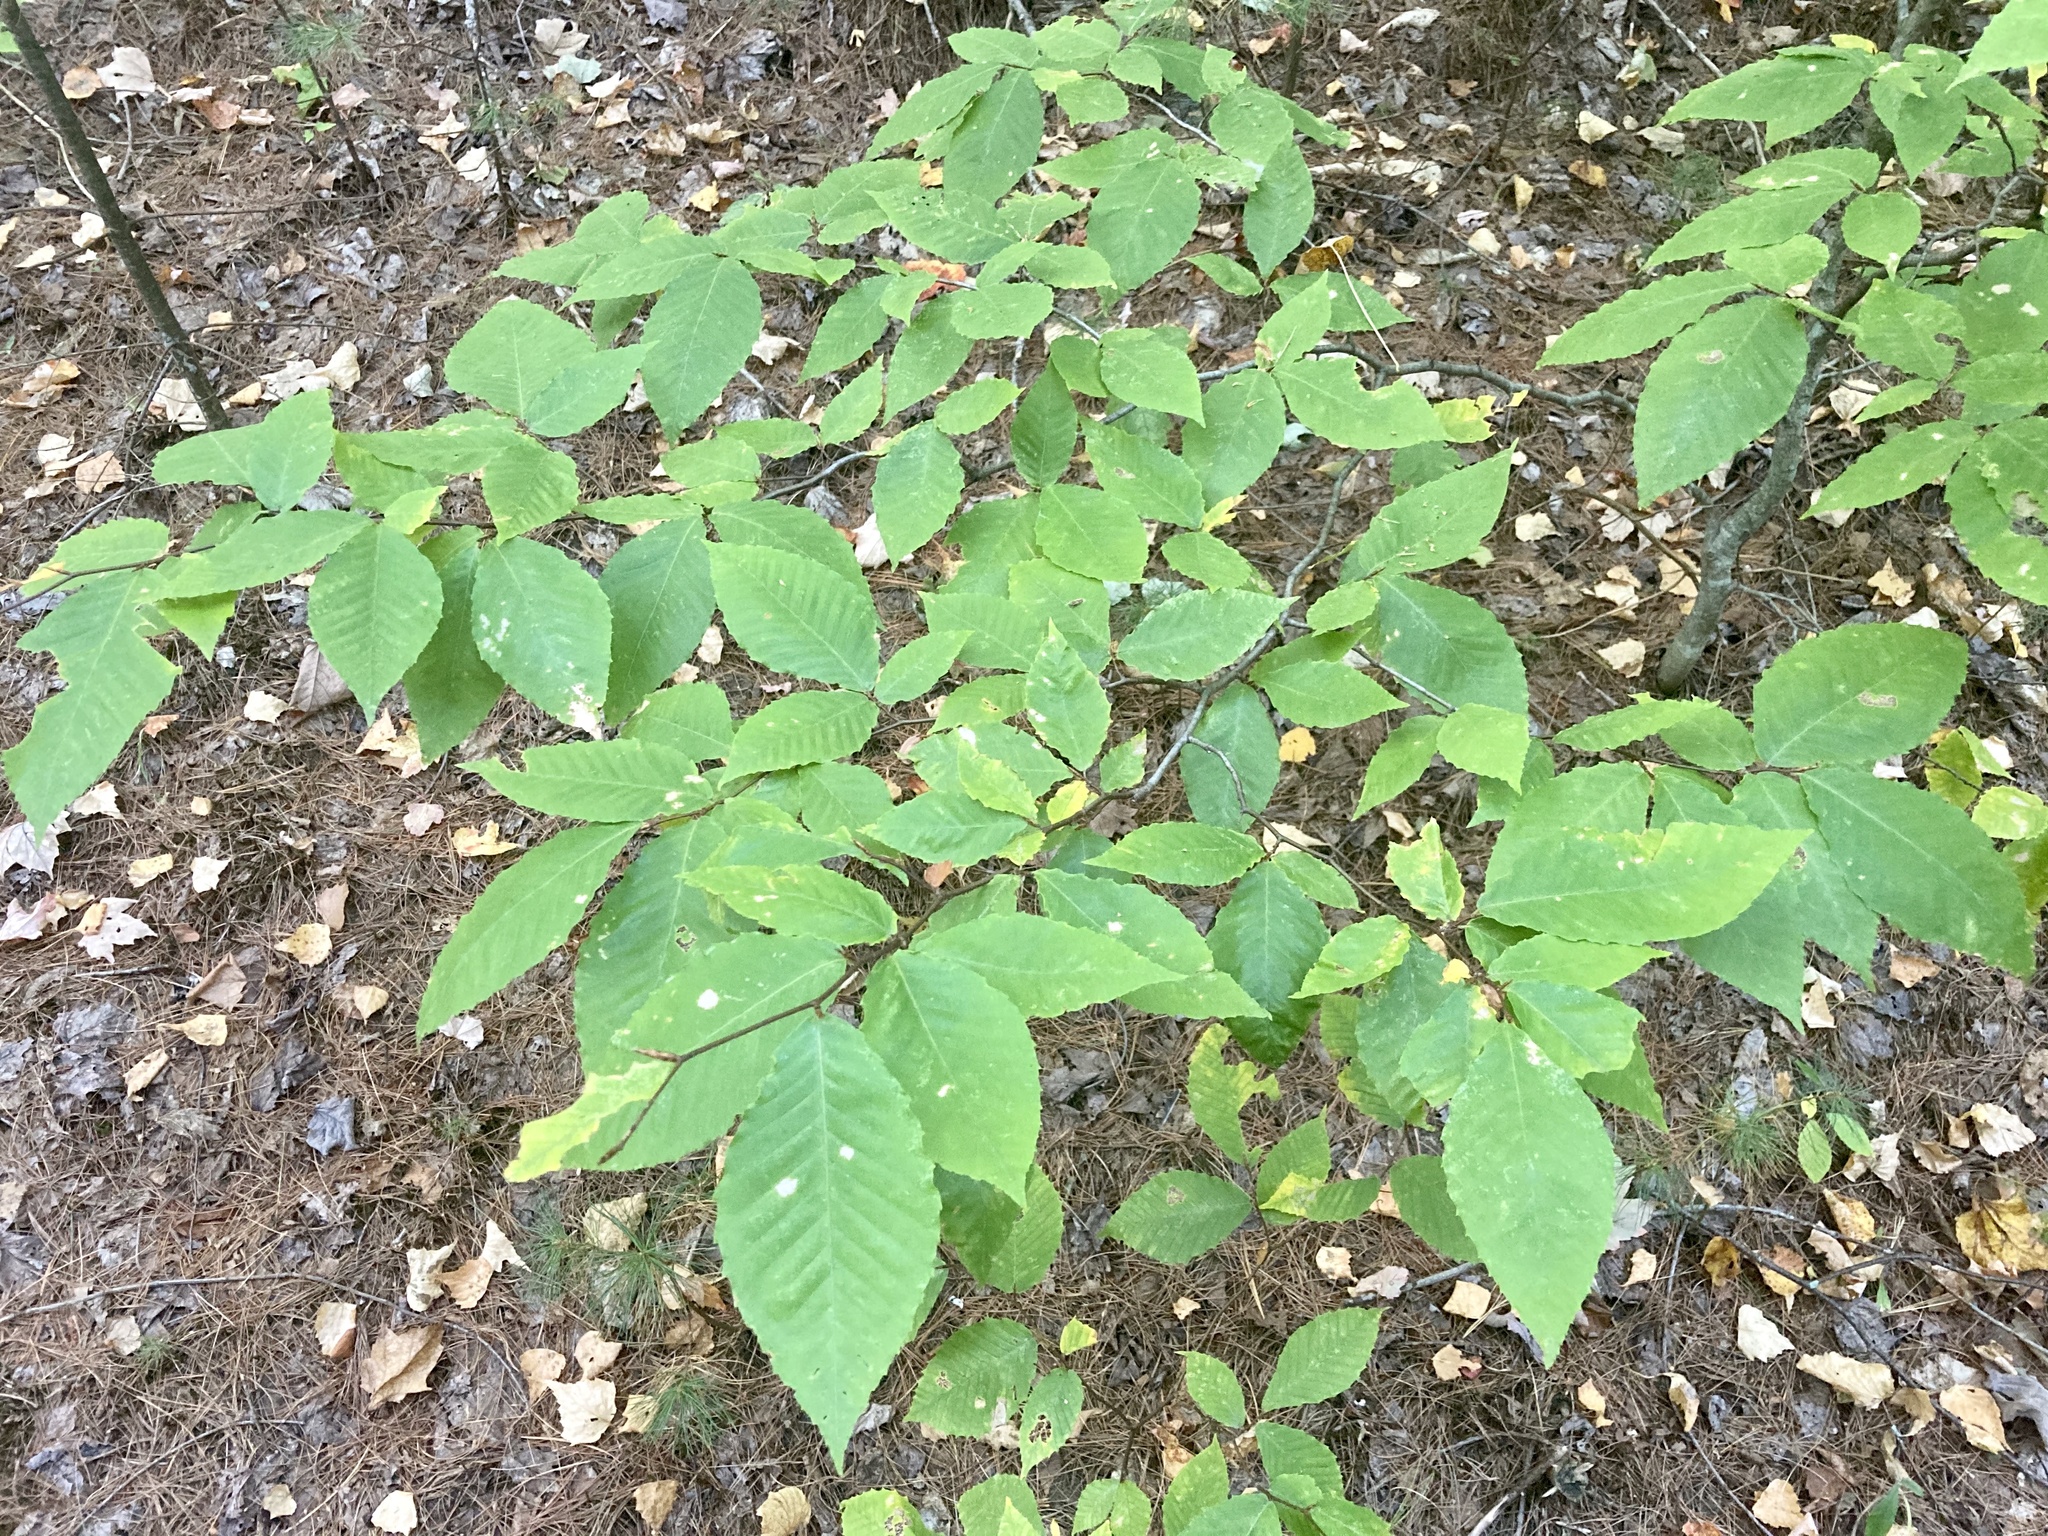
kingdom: Plantae
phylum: Tracheophyta
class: Magnoliopsida
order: Fagales
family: Fagaceae
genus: Fagus
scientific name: Fagus grandifolia
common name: American beech
